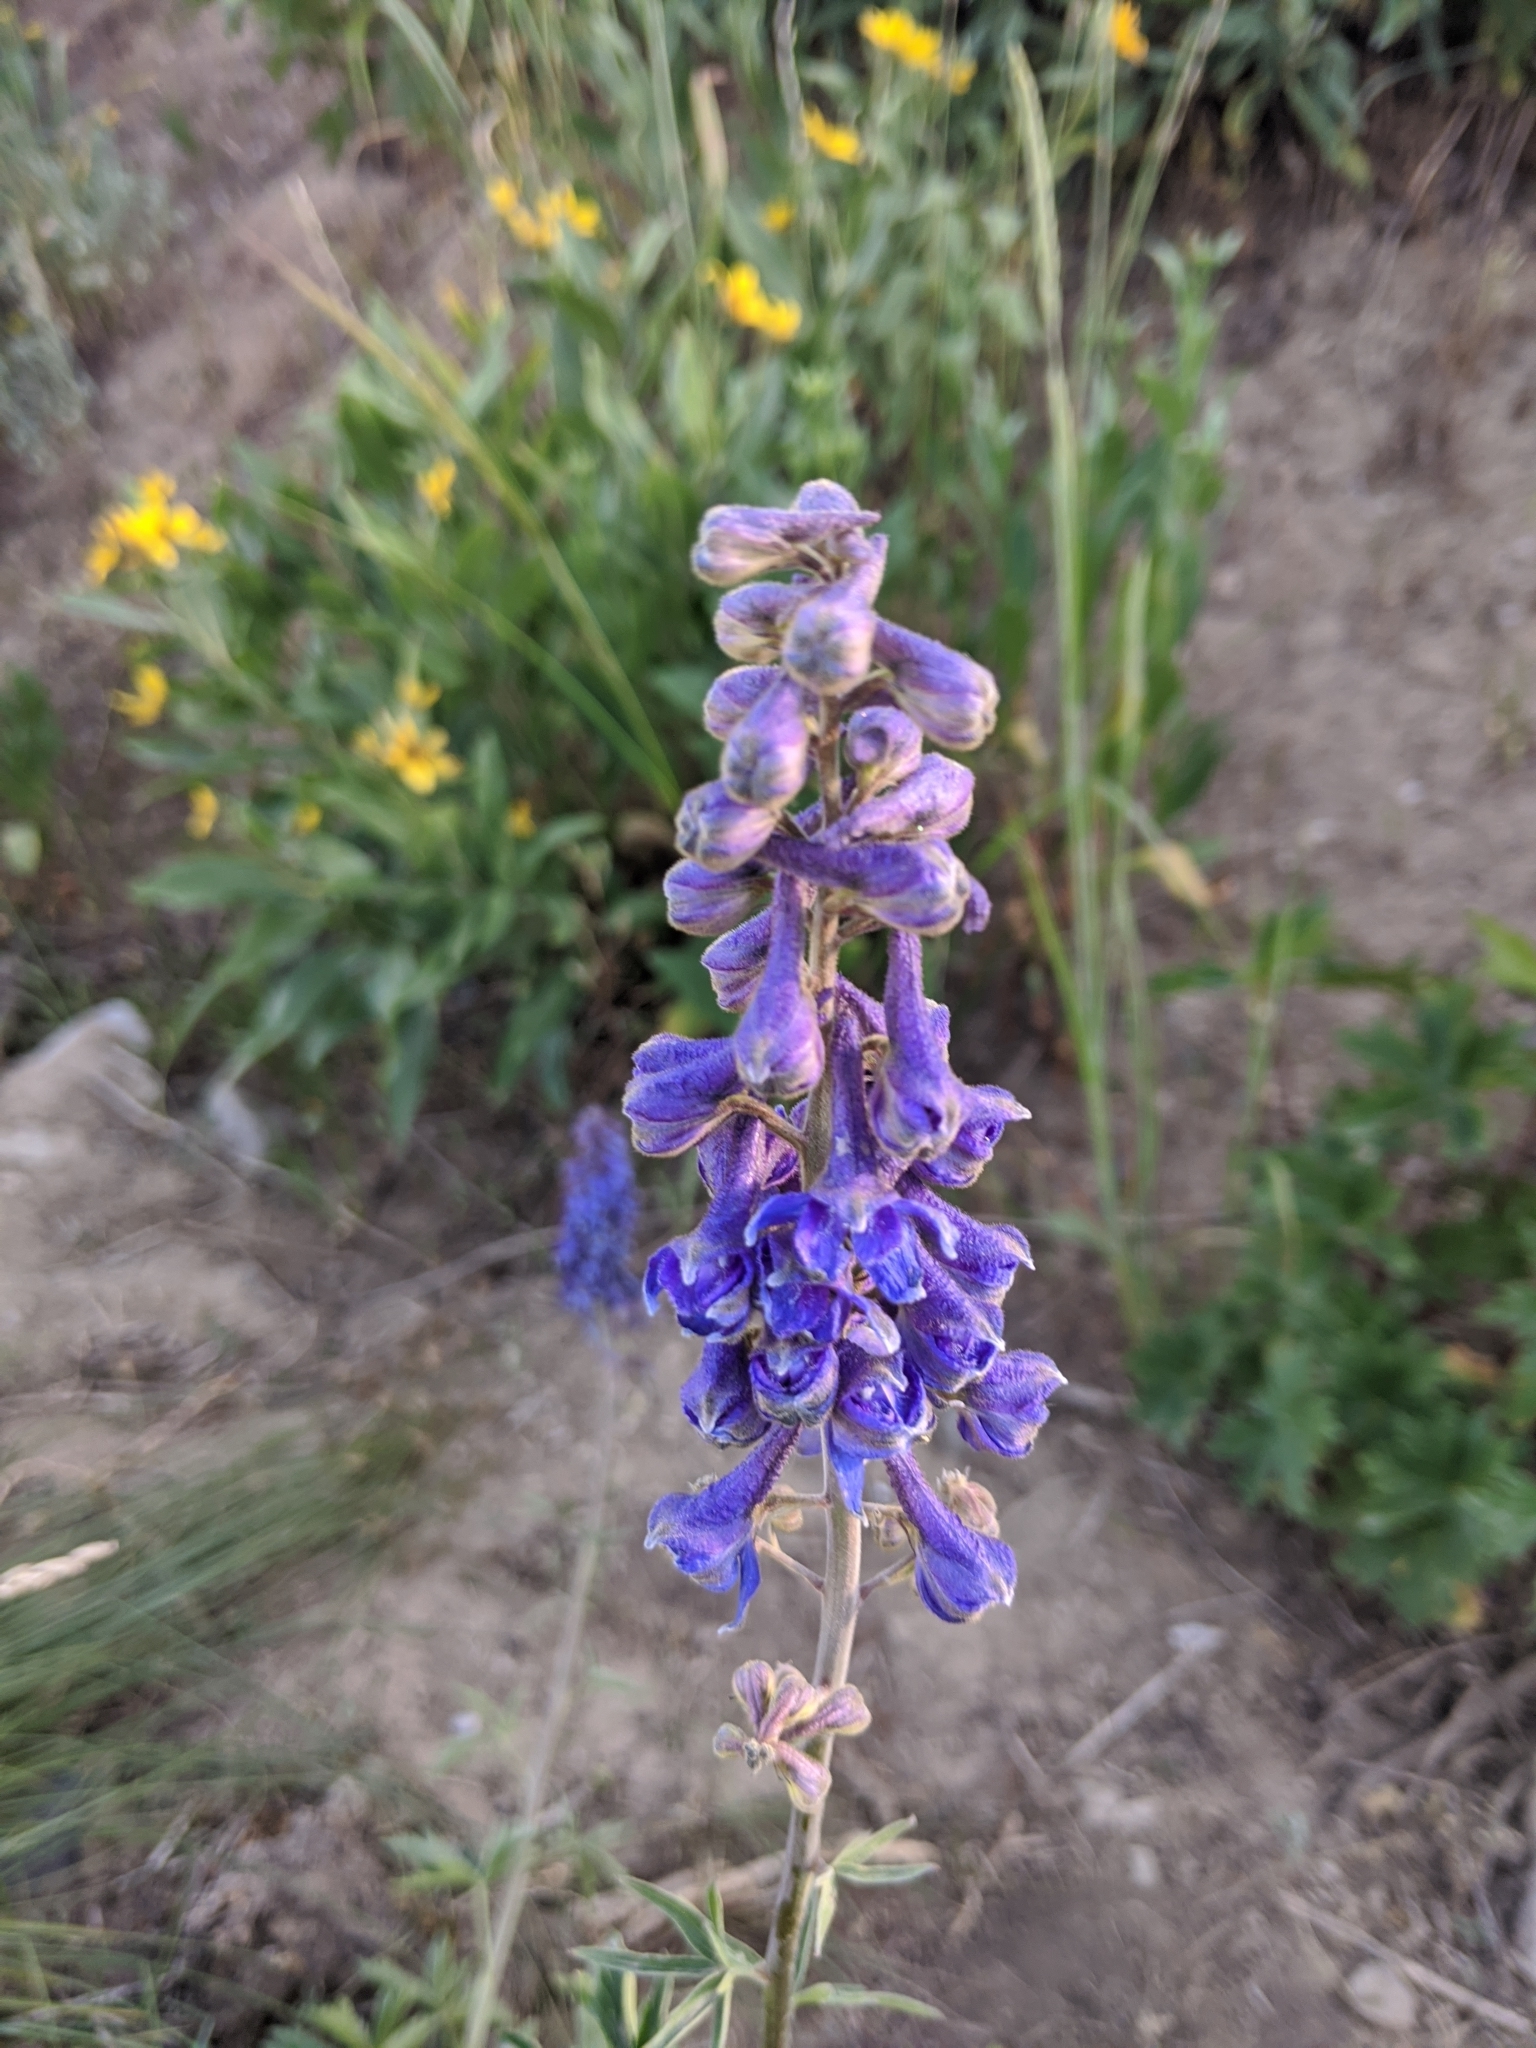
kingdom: Plantae
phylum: Tracheophyta
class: Magnoliopsida
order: Fabales
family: Fabaceae
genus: Lupinus
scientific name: Lupinus argenteus
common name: Silvery lupine
